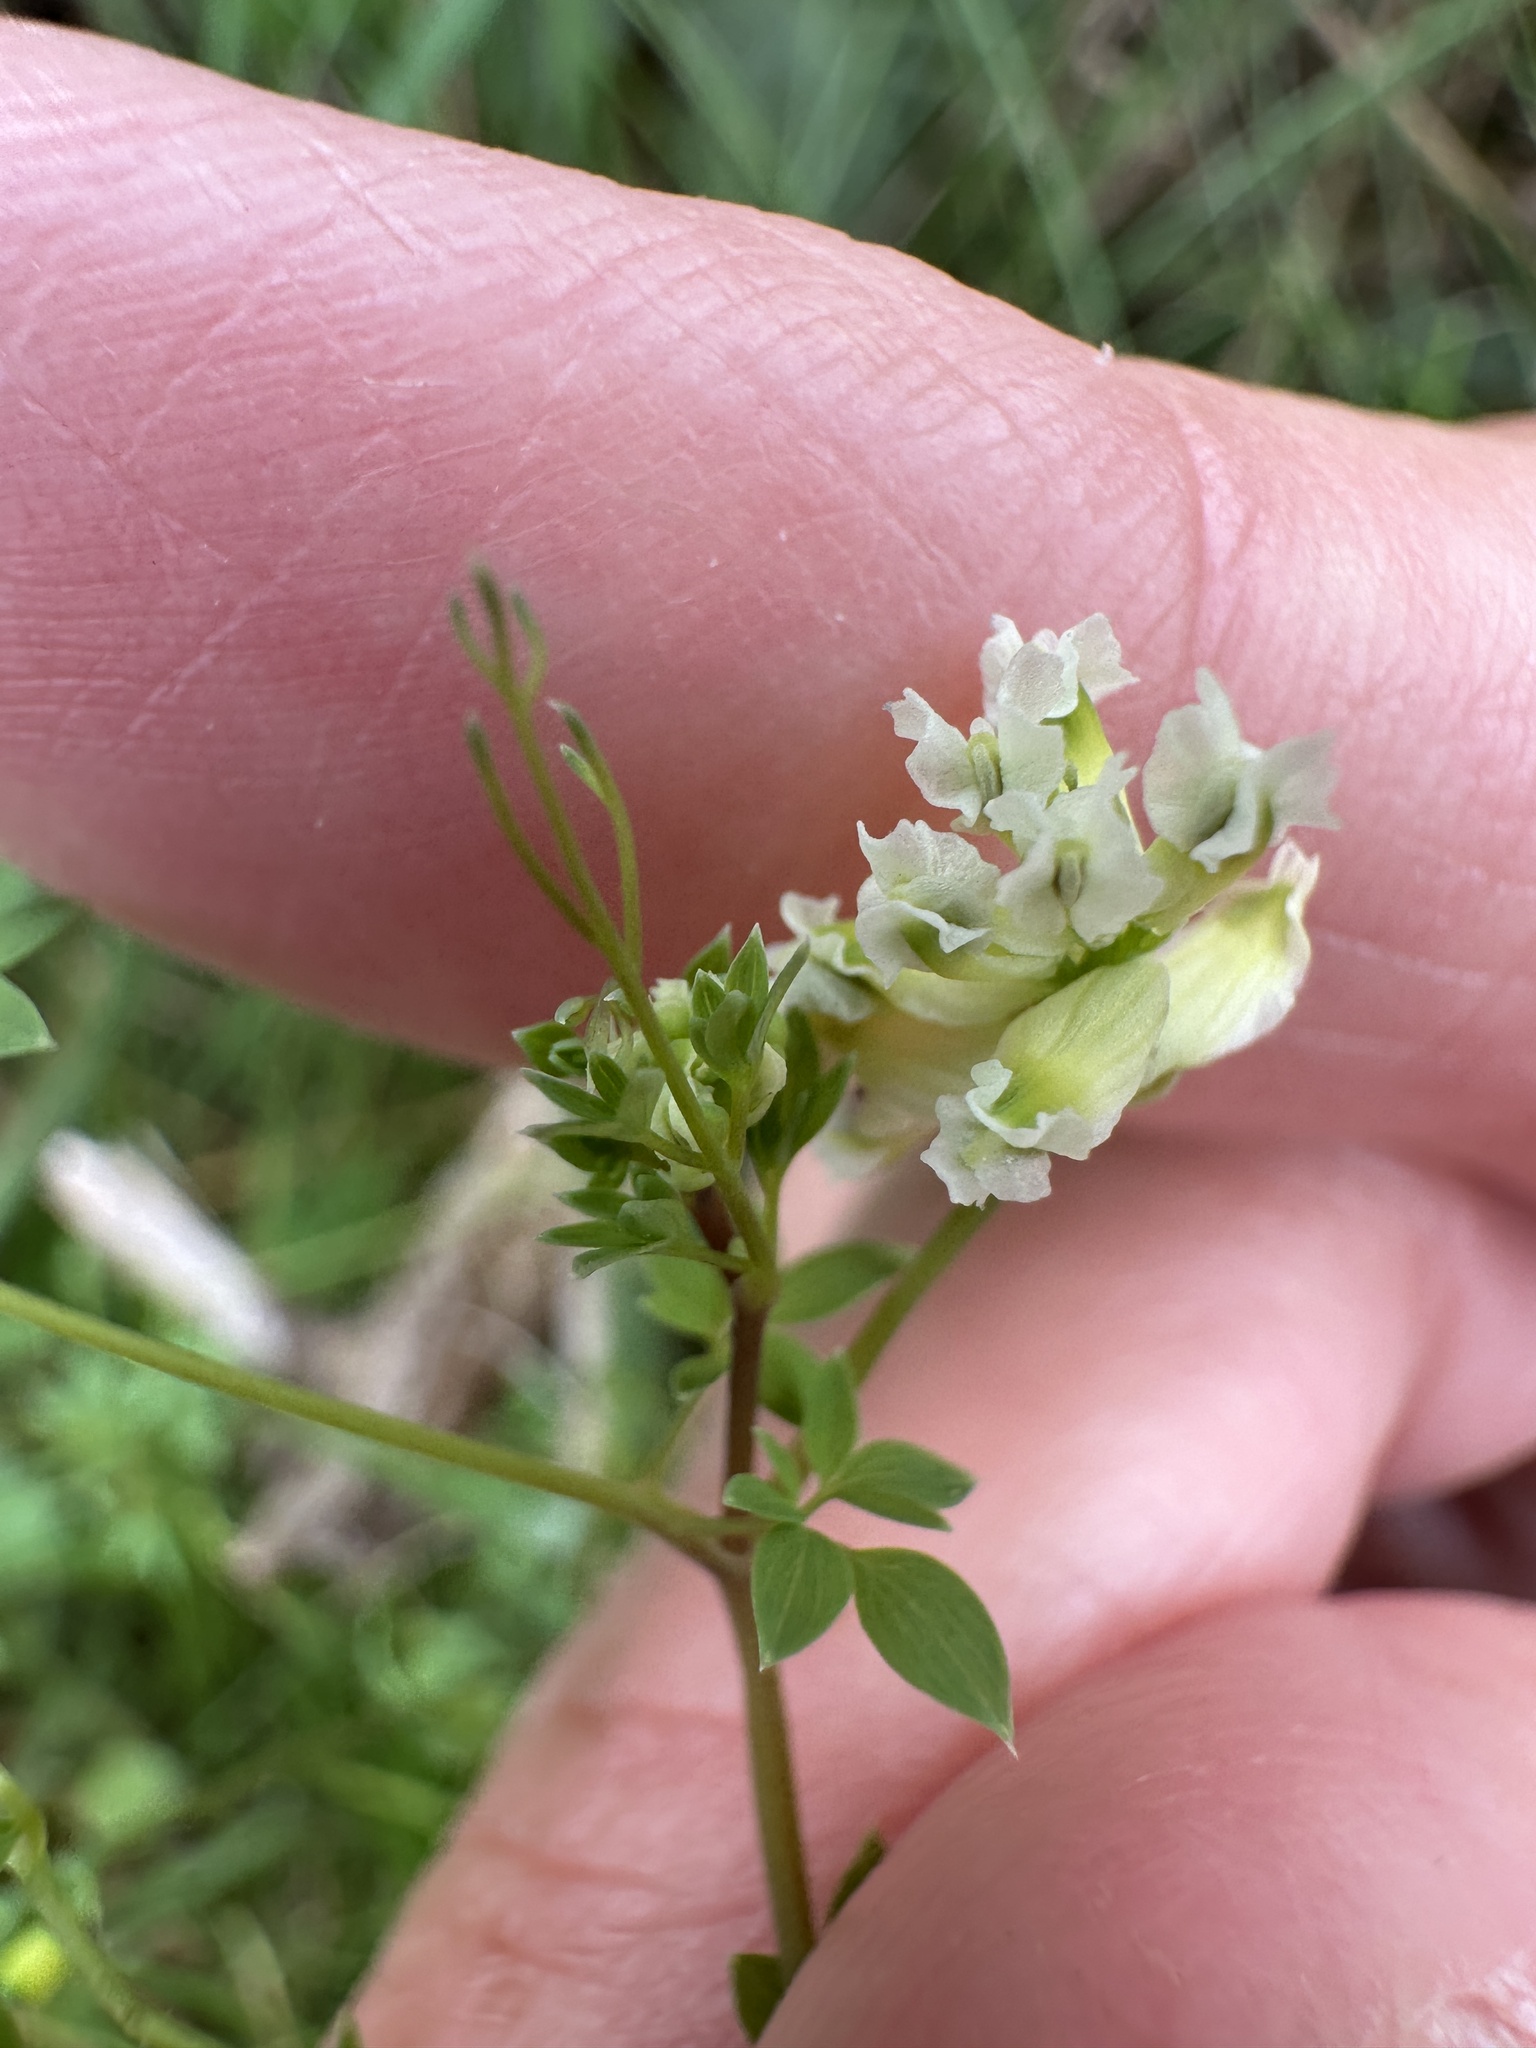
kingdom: Plantae
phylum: Tracheophyta
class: Magnoliopsida
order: Ranunculales
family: Papaveraceae
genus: Ceratocapnos
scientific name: Ceratocapnos claviculata
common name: Climbing corydalis
